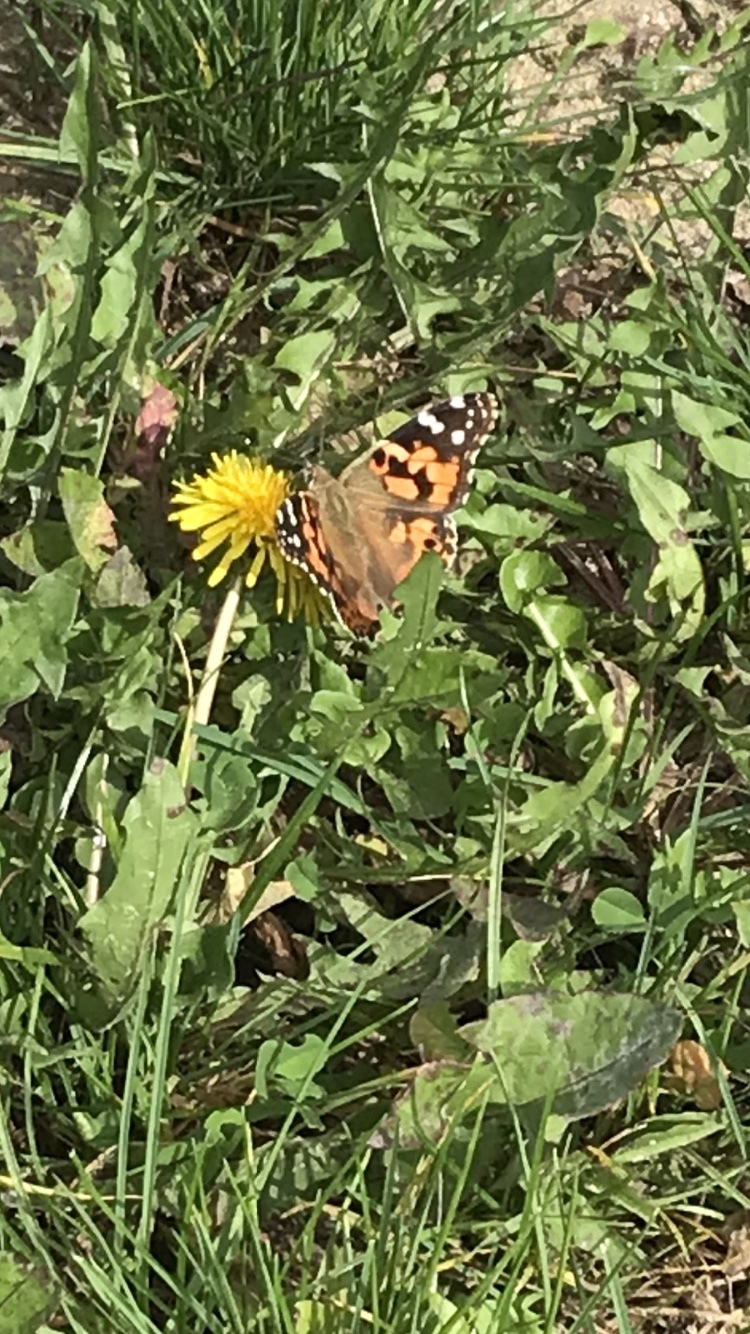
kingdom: Animalia
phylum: Arthropoda
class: Insecta
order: Lepidoptera
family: Nymphalidae
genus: Vanessa
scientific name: Vanessa cardui
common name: Painted lady
